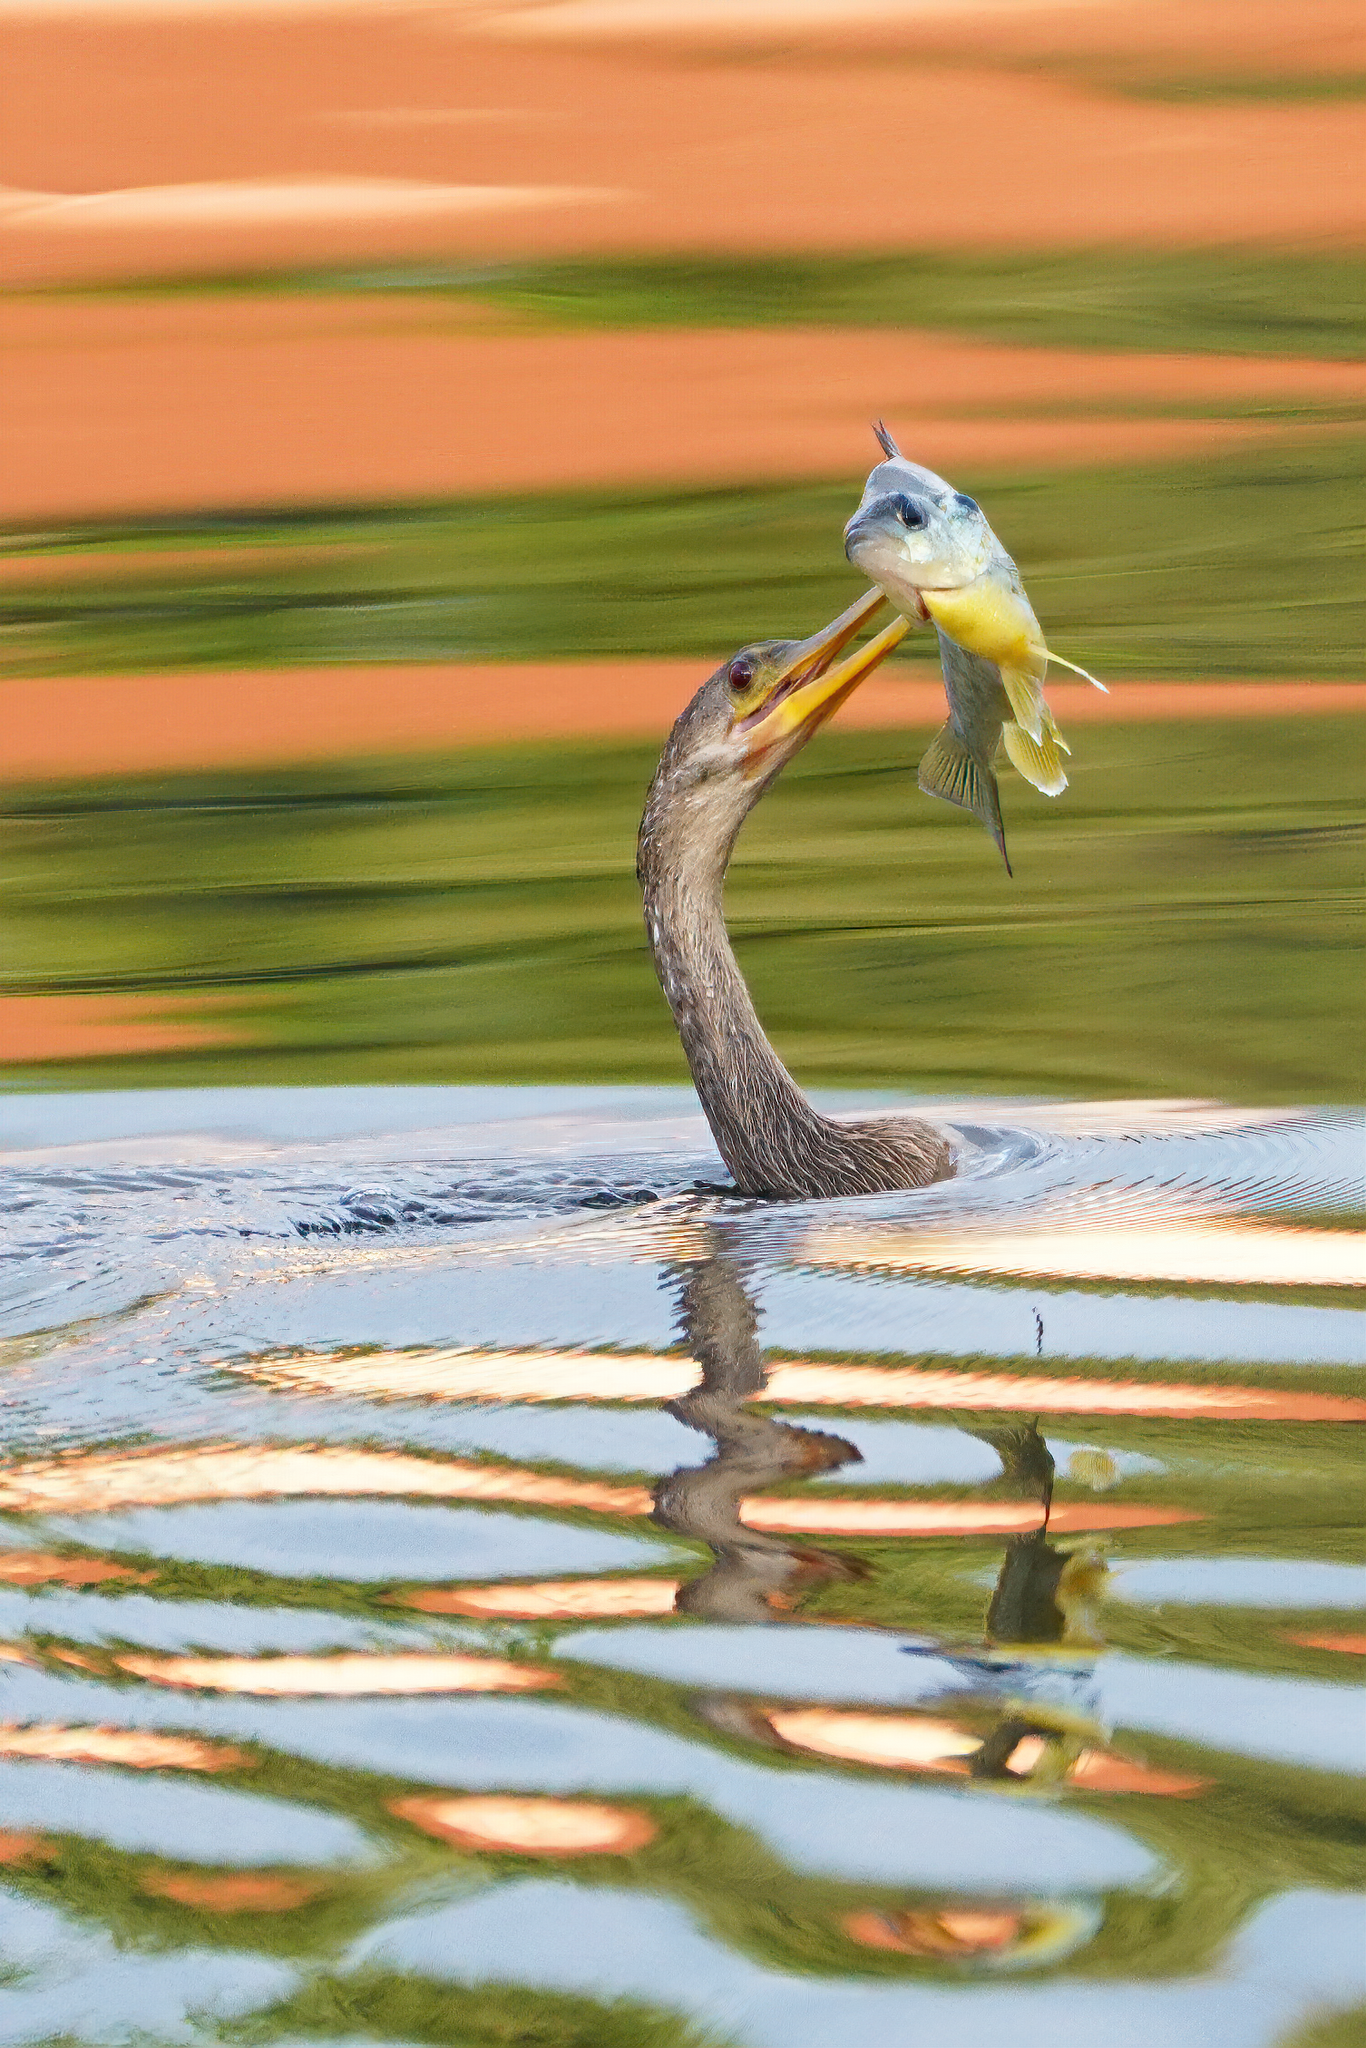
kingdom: Animalia
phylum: Chordata
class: Aves
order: Suliformes
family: Anhingidae
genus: Anhinga
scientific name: Anhinga anhinga
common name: Anhinga
